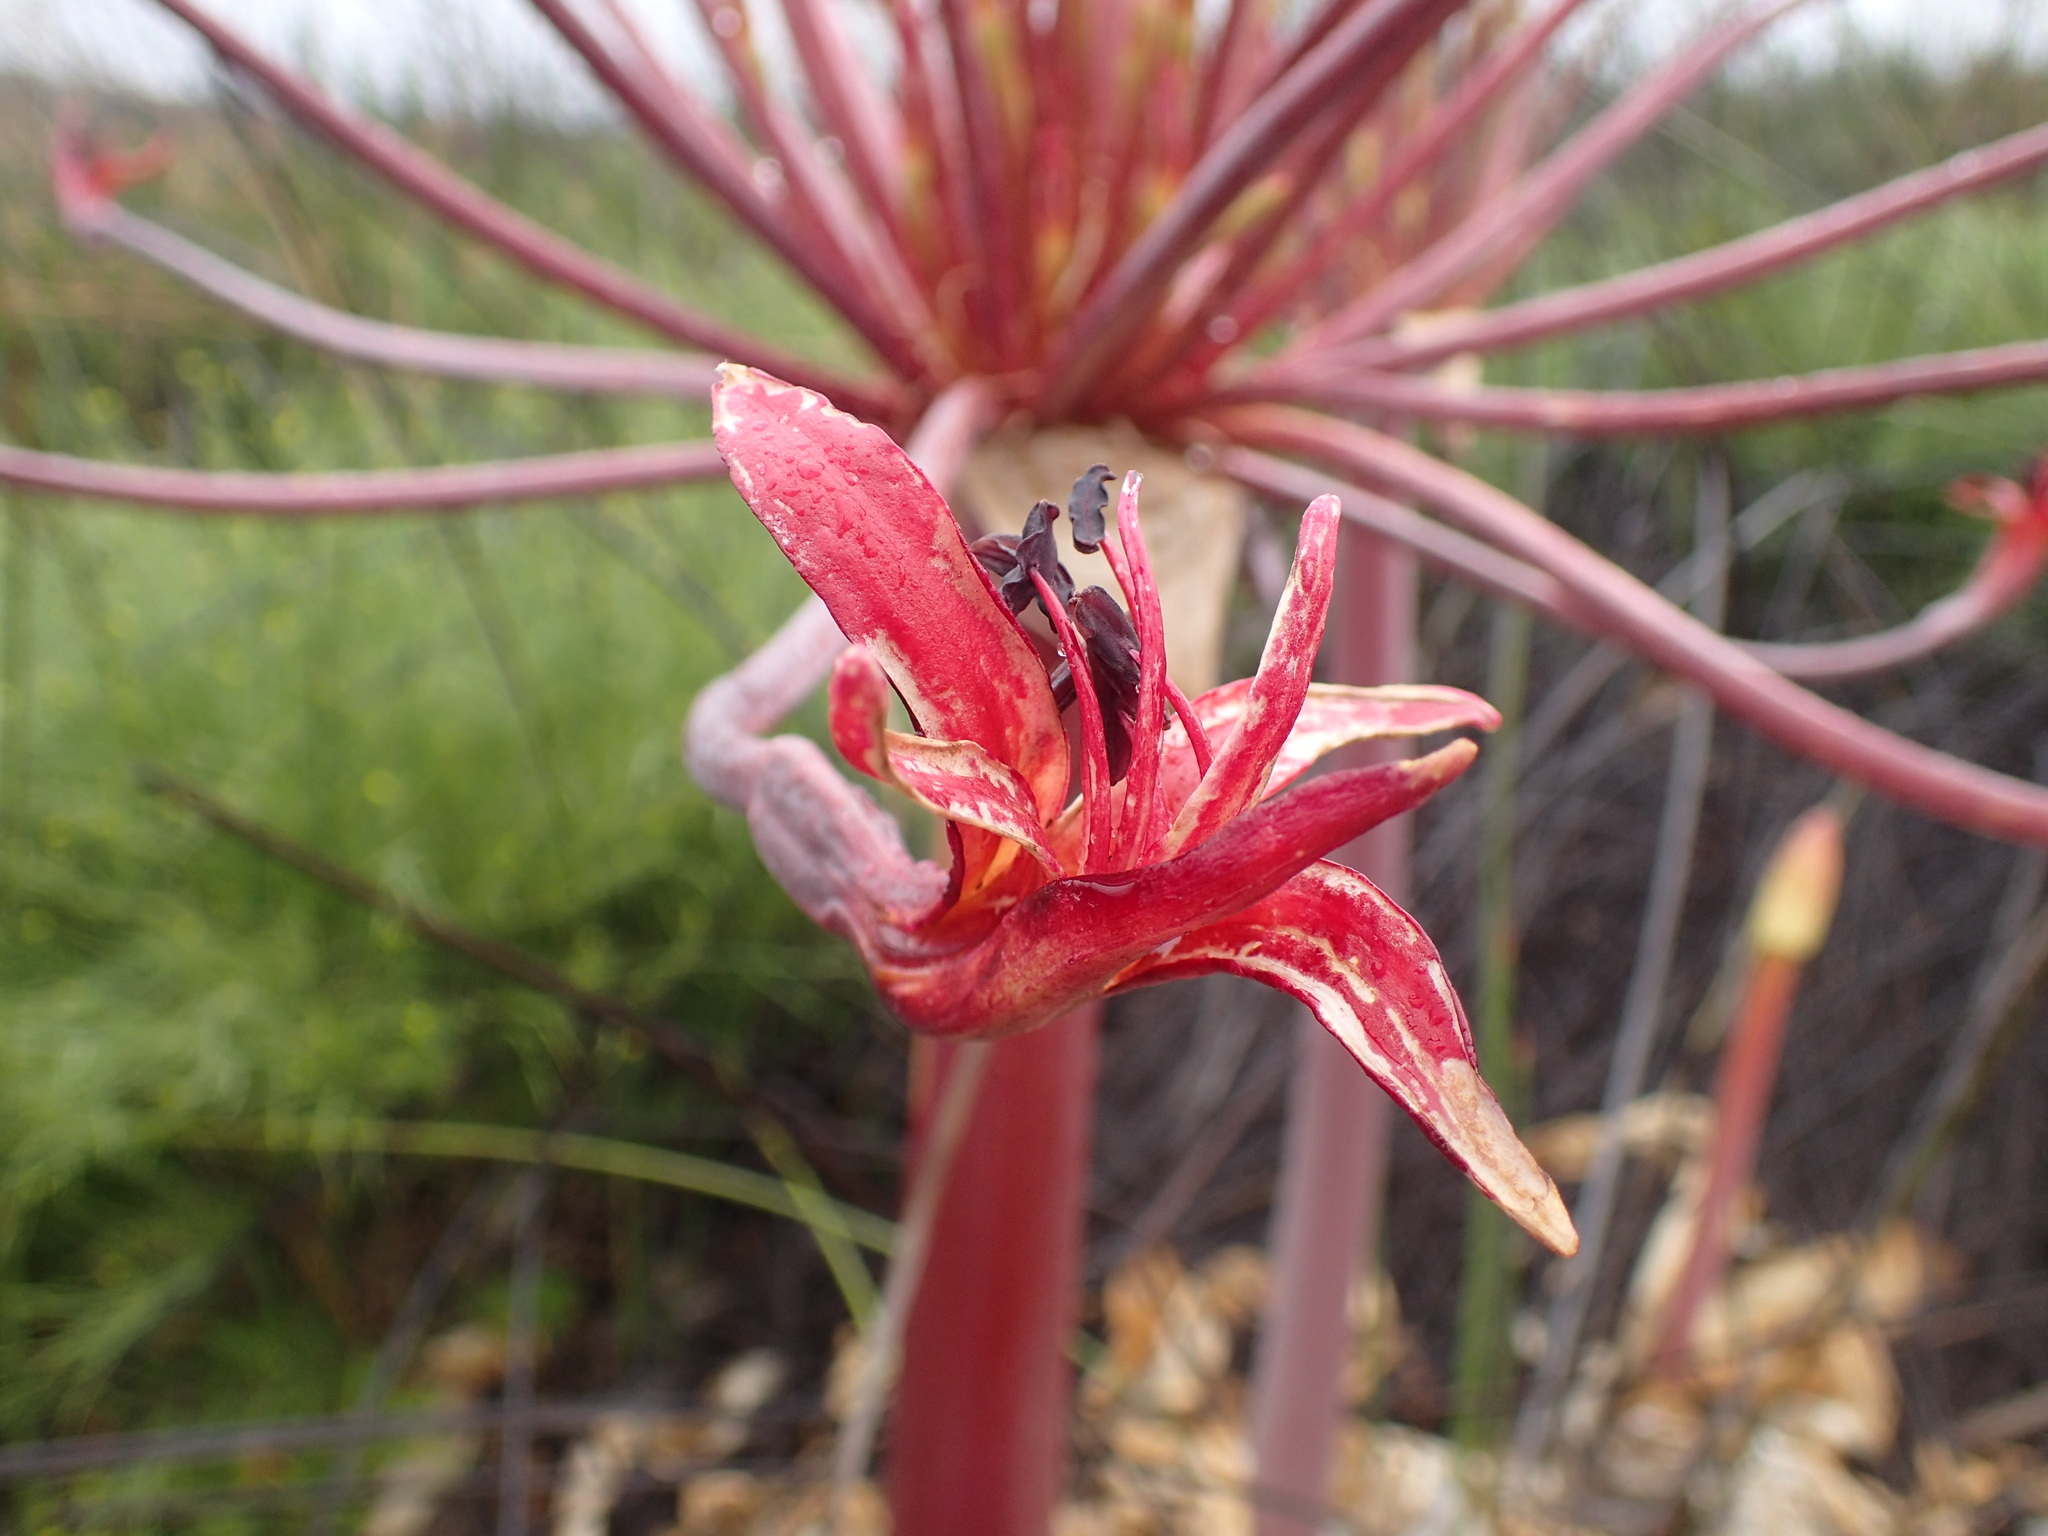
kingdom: Plantae
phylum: Tracheophyta
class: Liliopsida
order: Asparagales
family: Amaryllidaceae
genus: Brunsvigia
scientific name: Brunsvigia josephinae
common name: Josephine's-lily
